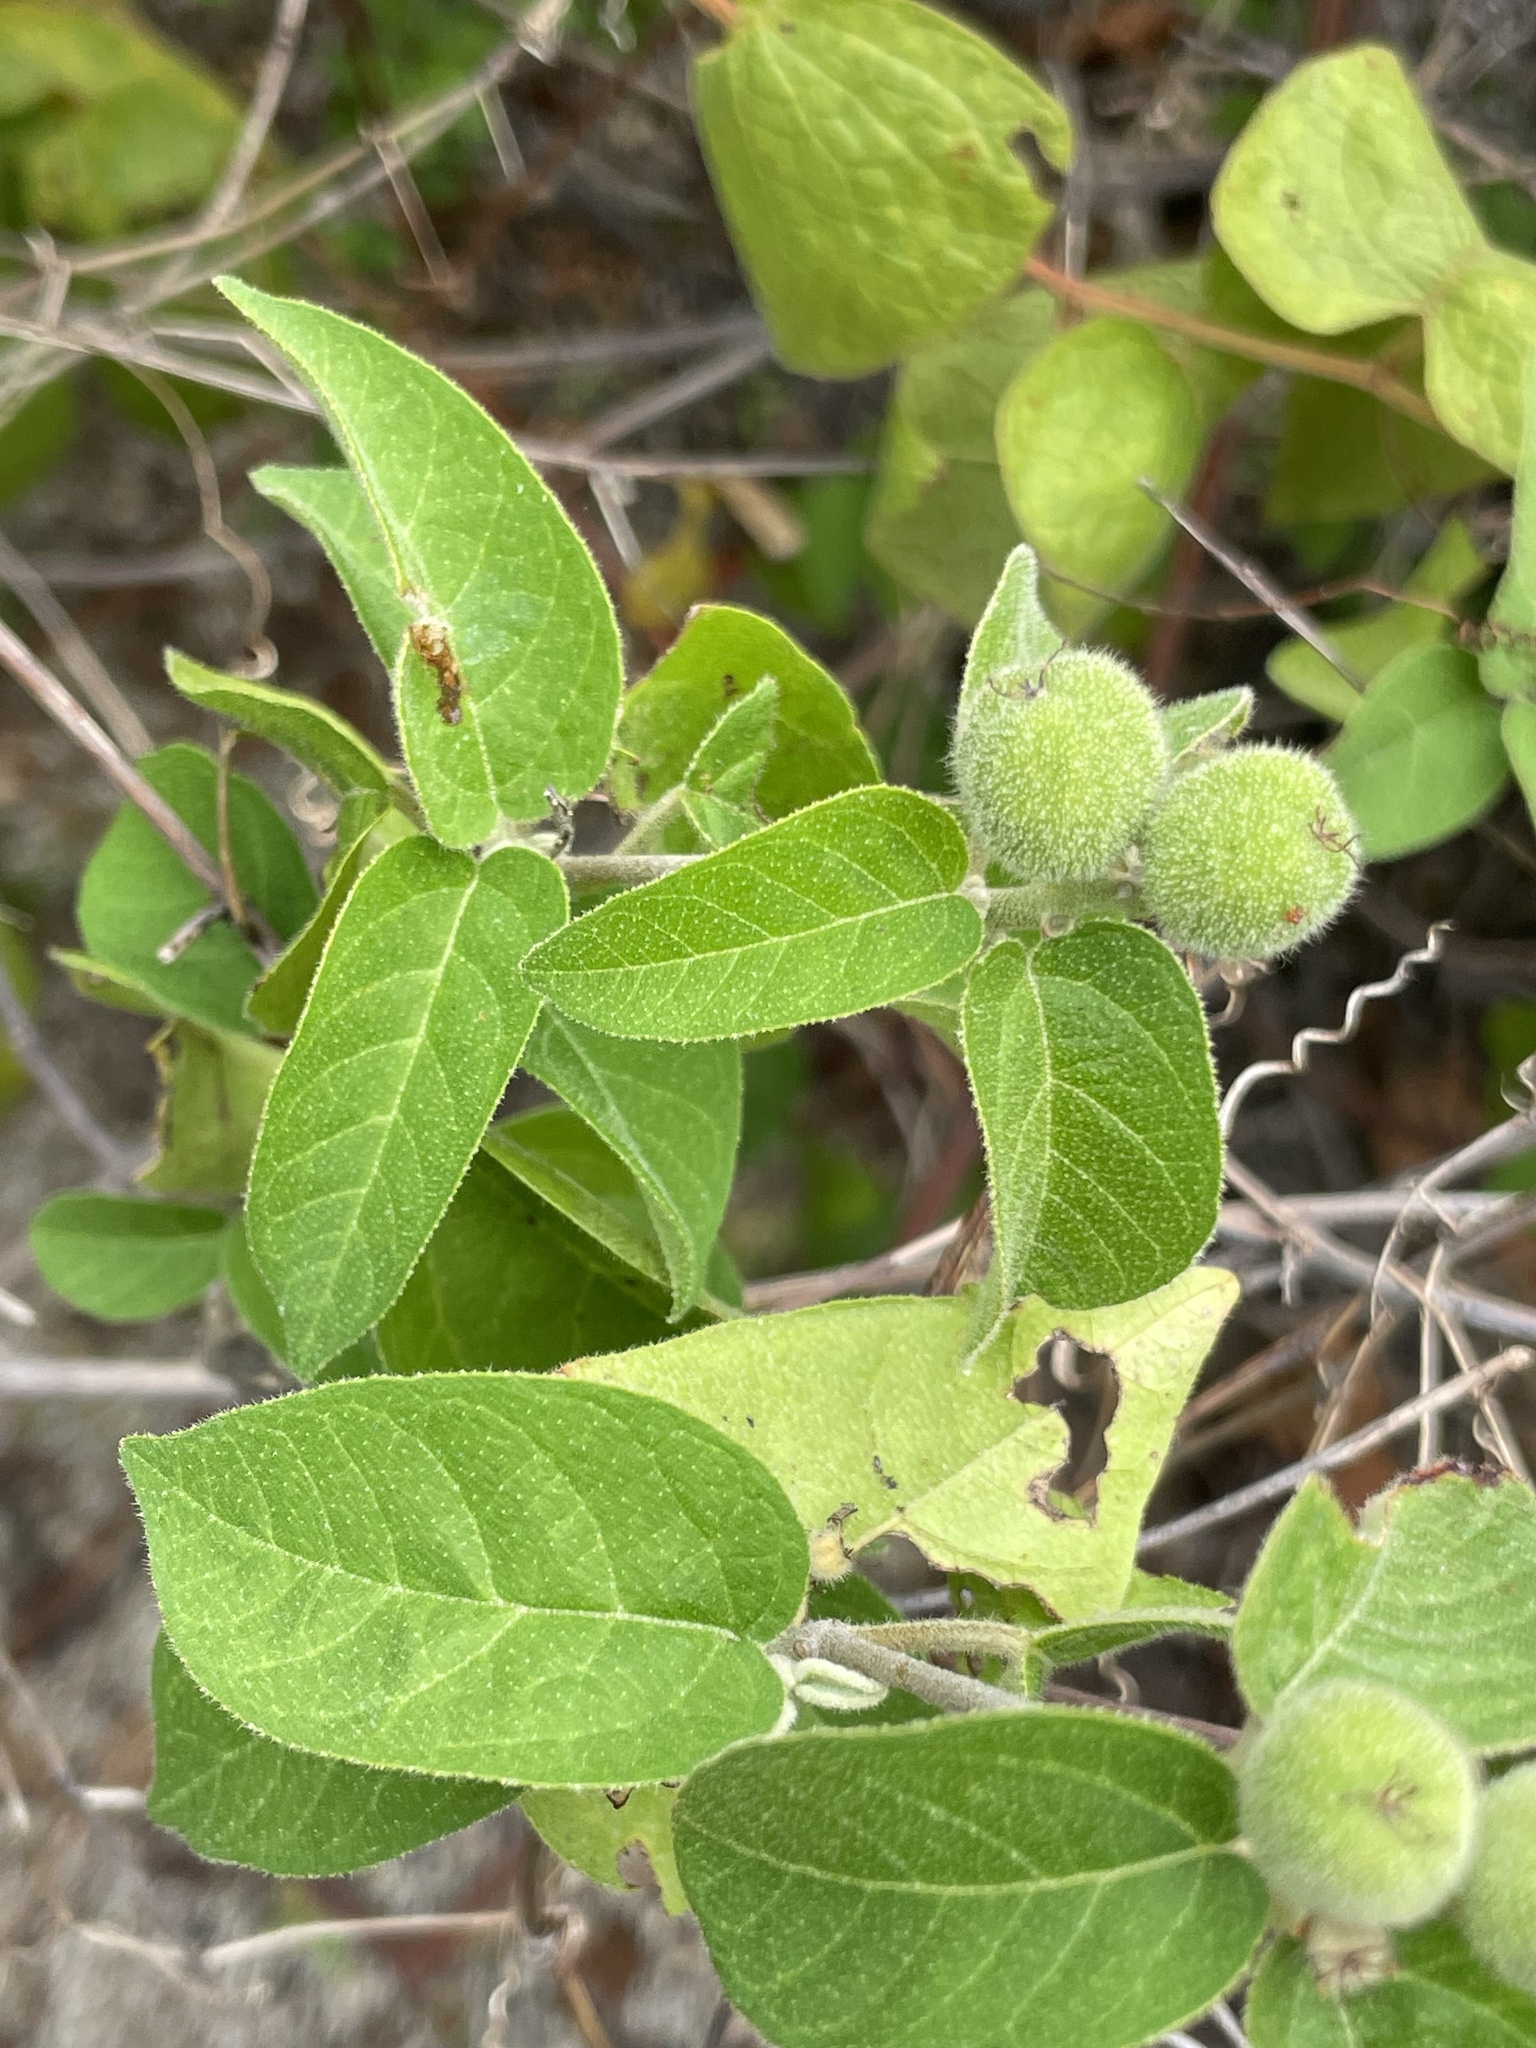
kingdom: Plantae
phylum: Tracheophyta
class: Magnoliopsida
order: Malpighiales
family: Euphorbiaceae
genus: Croton
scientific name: Croton magdalenae
